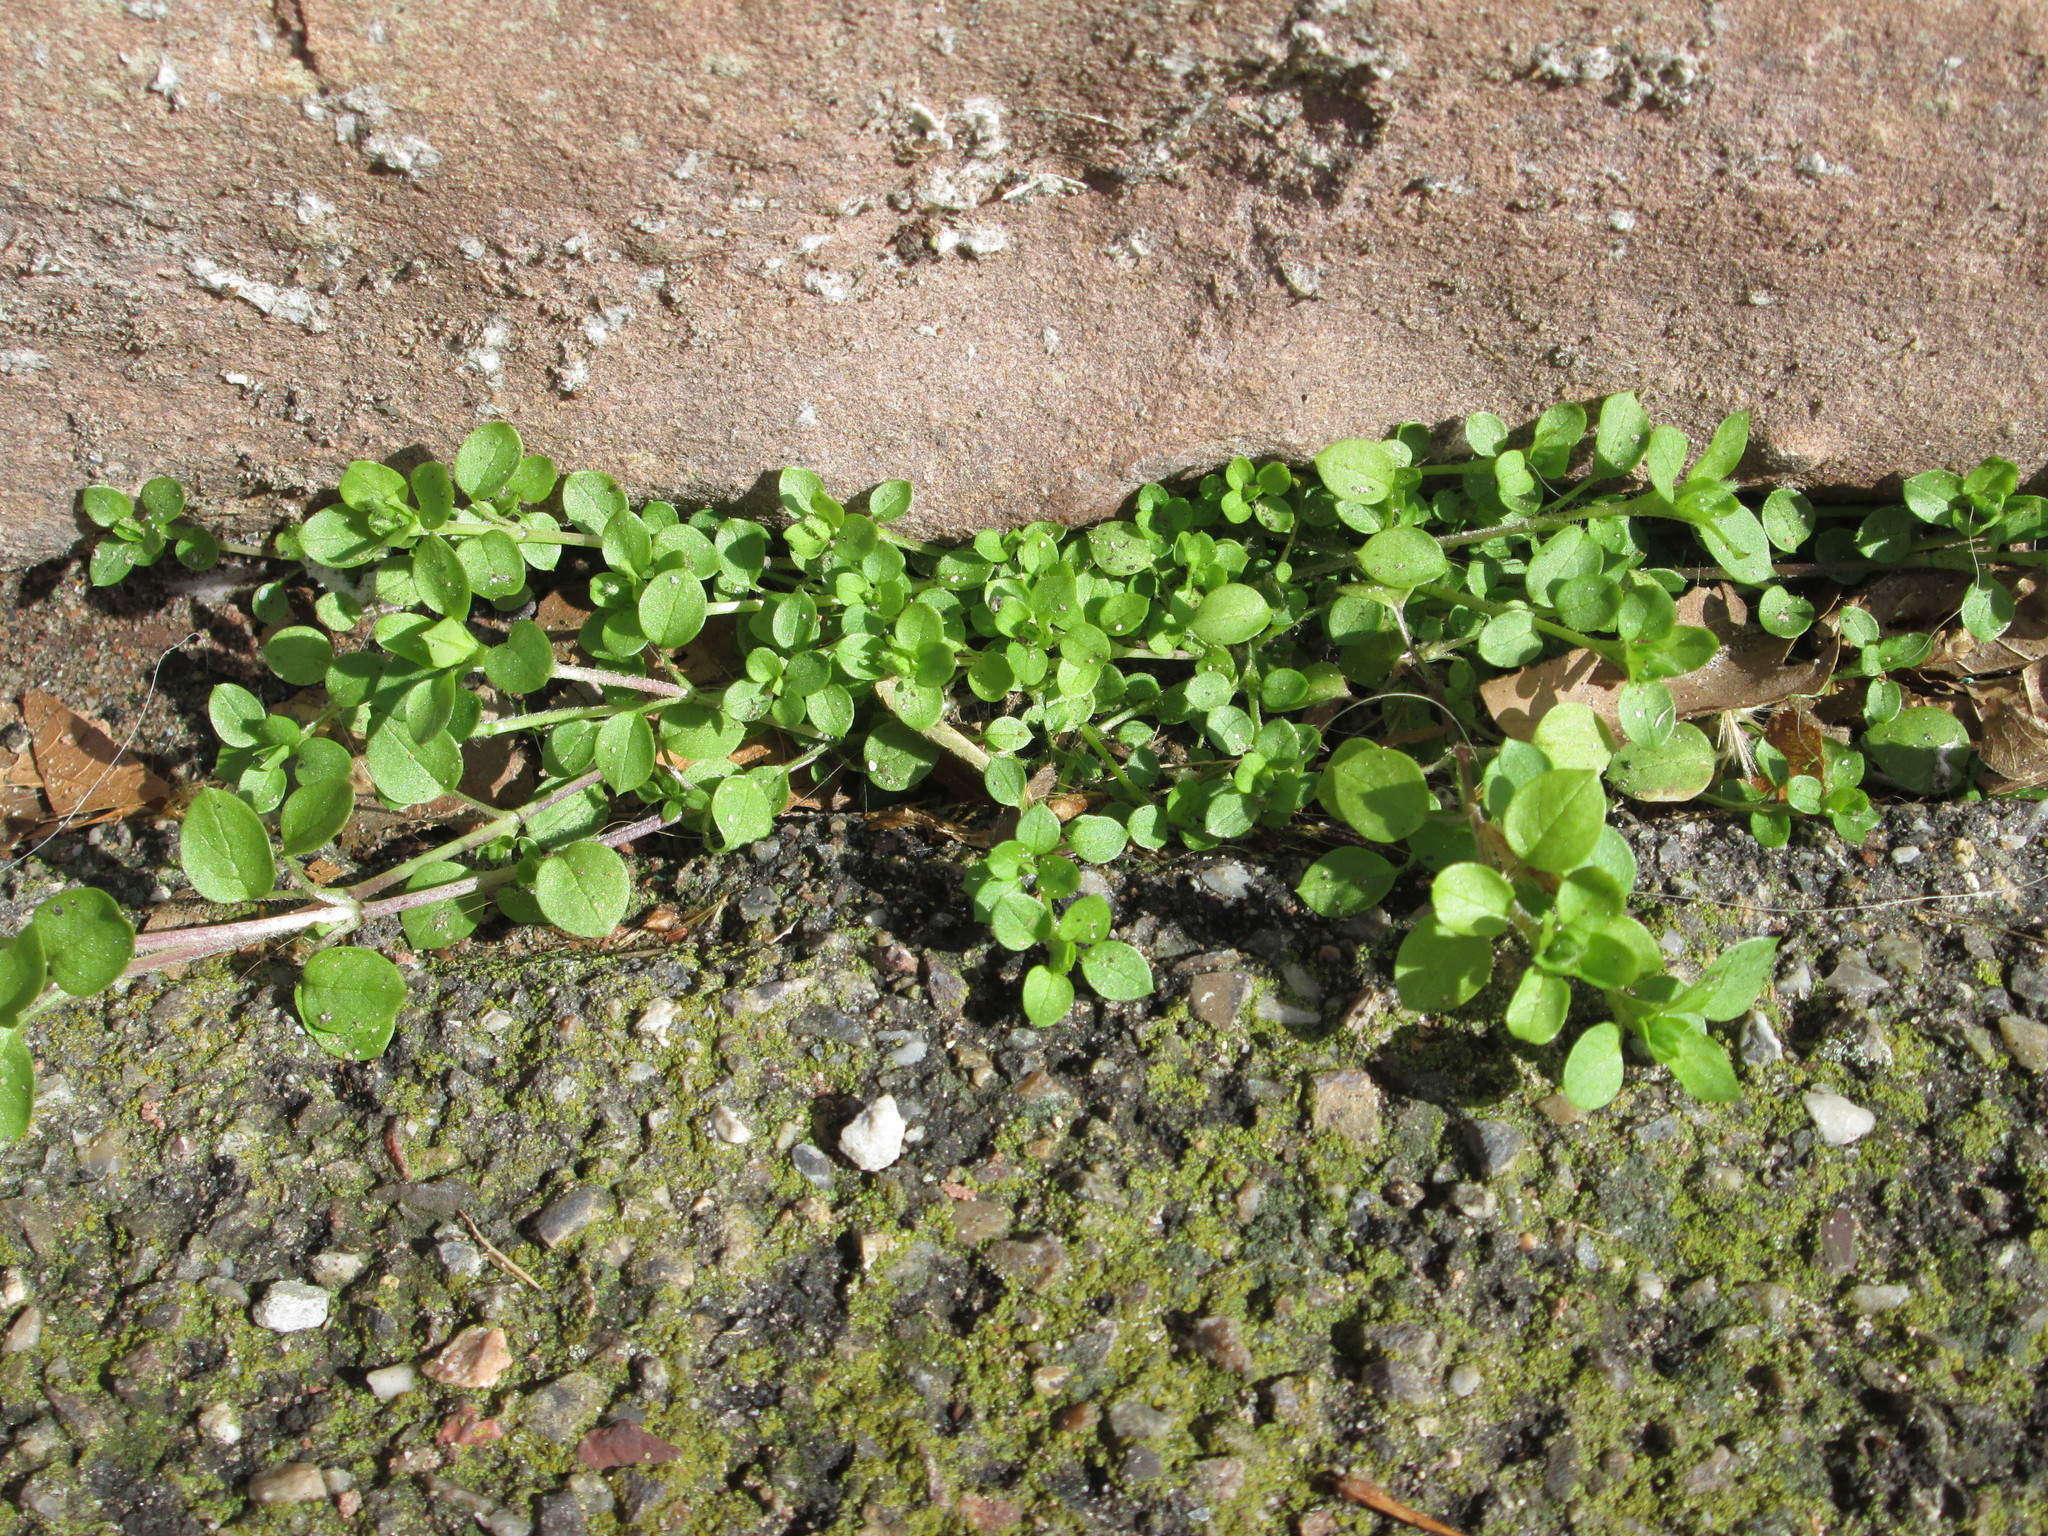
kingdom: Plantae
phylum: Tracheophyta
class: Magnoliopsida
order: Caryophyllales
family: Caryophyllaceae
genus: Stellaria
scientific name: Stellaria media
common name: Common chickweed
